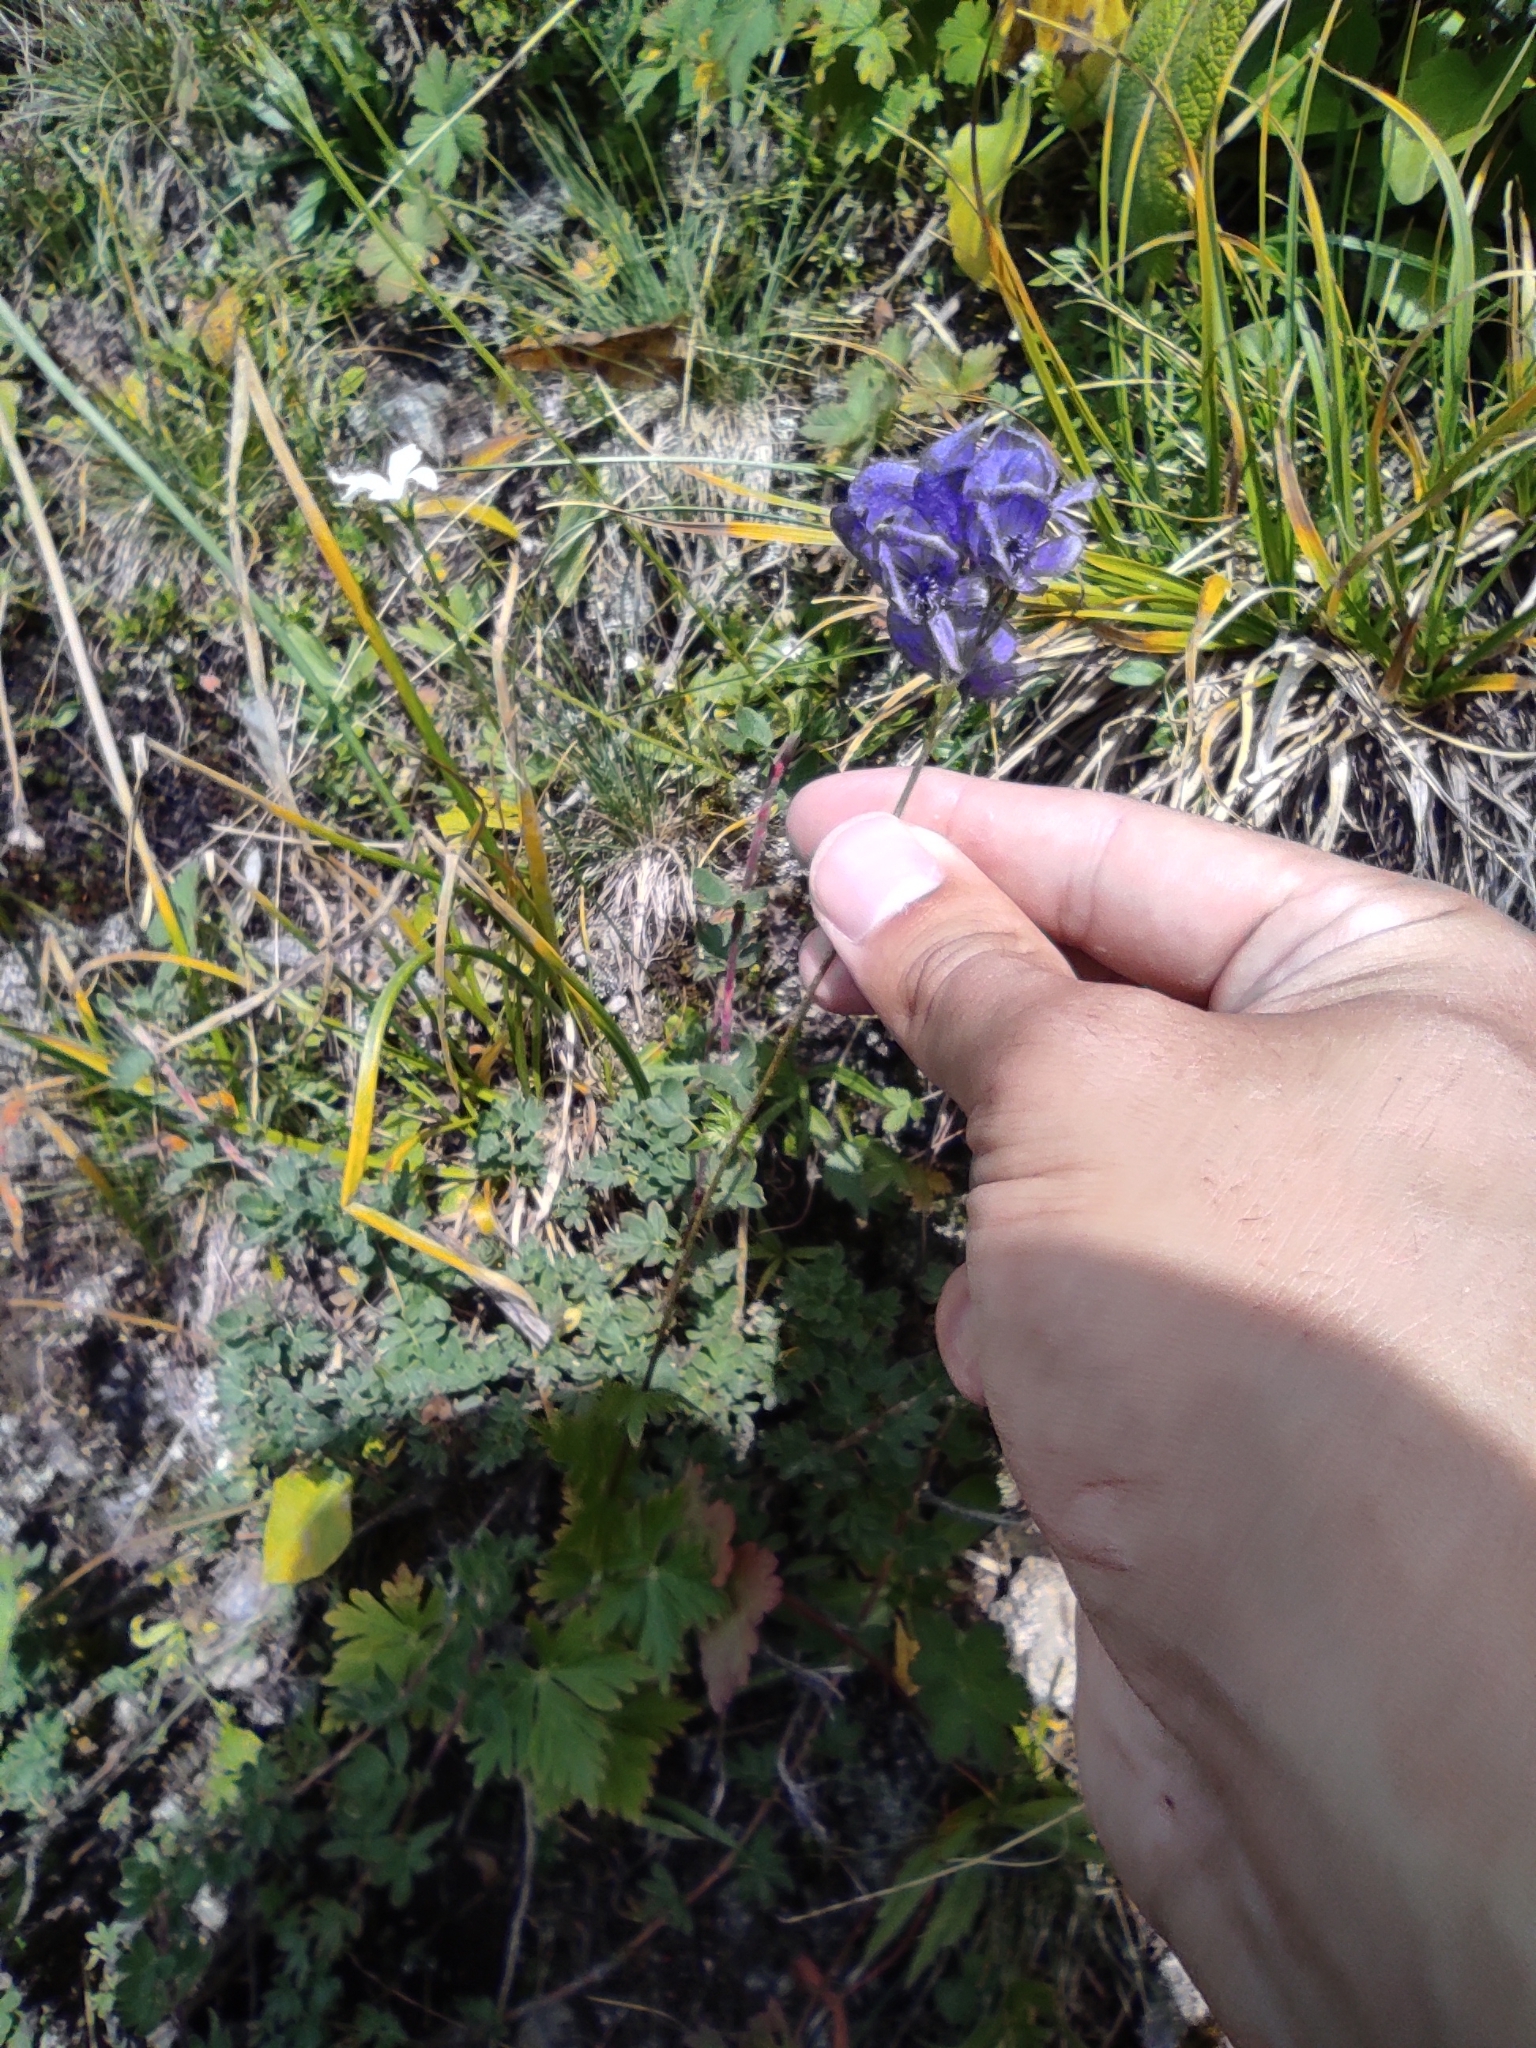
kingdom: Plantae
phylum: Tracheophyta
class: Magnoliopsida
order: Ranunculales
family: Ranunculaceae
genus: Aconitum
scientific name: Aconitum nemorum
